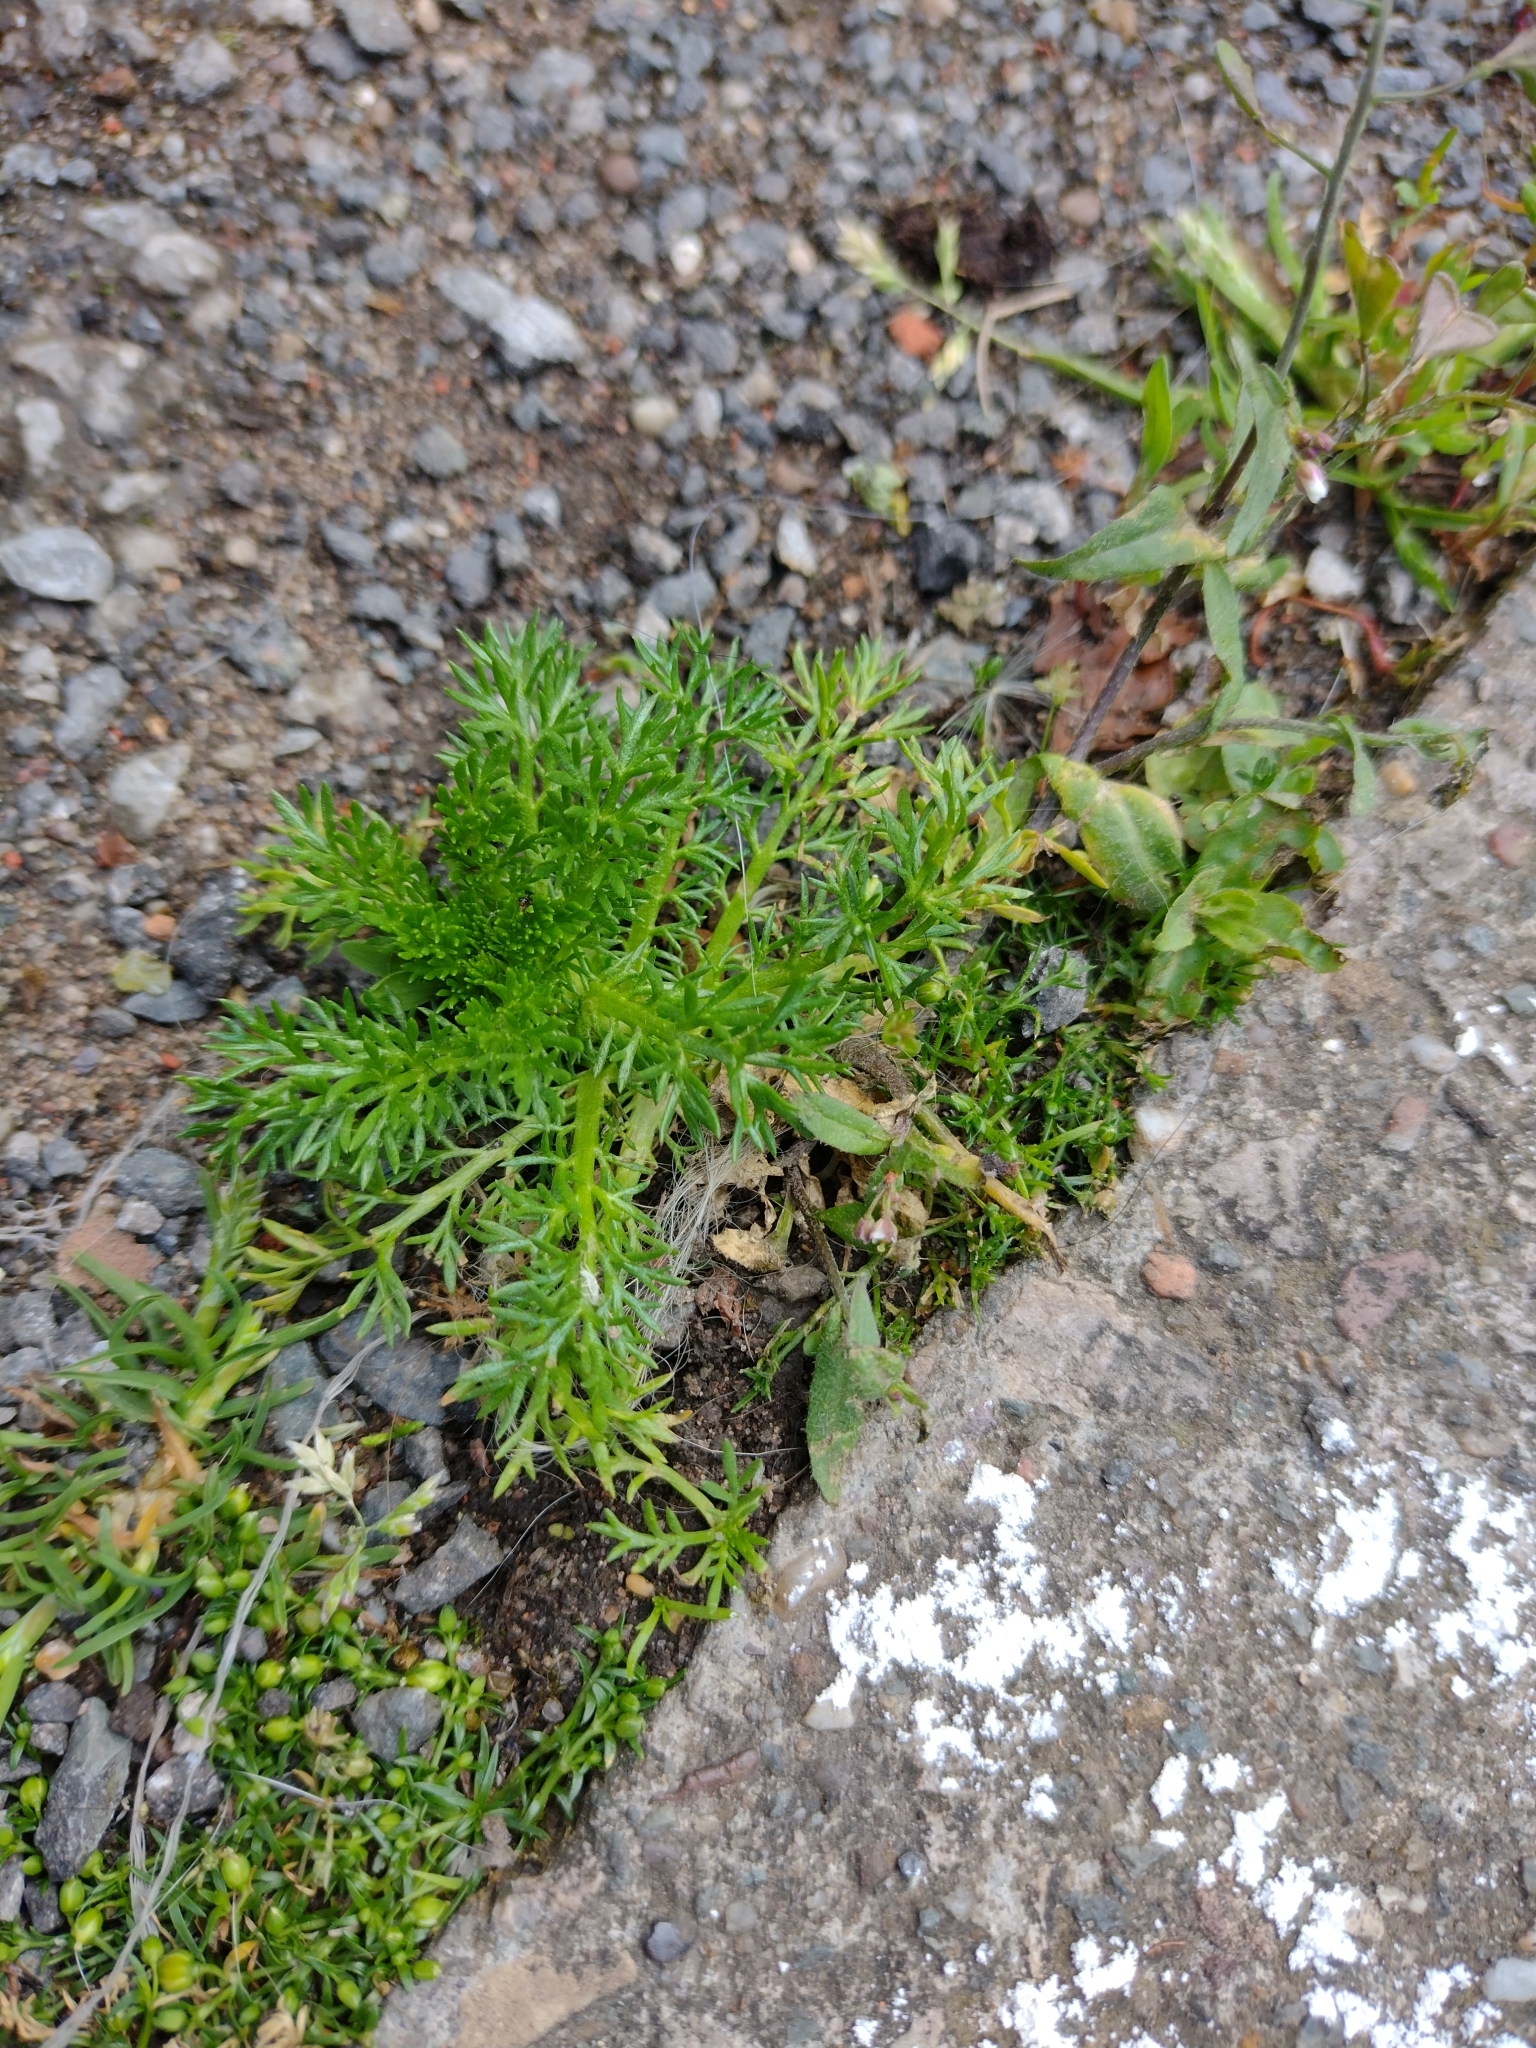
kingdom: Plantae
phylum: Tracheophyta
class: Magnoliopsida
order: Asterales
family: Asteraceae
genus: Matricaria
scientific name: Matricaria discoidea
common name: Disc mayweed
